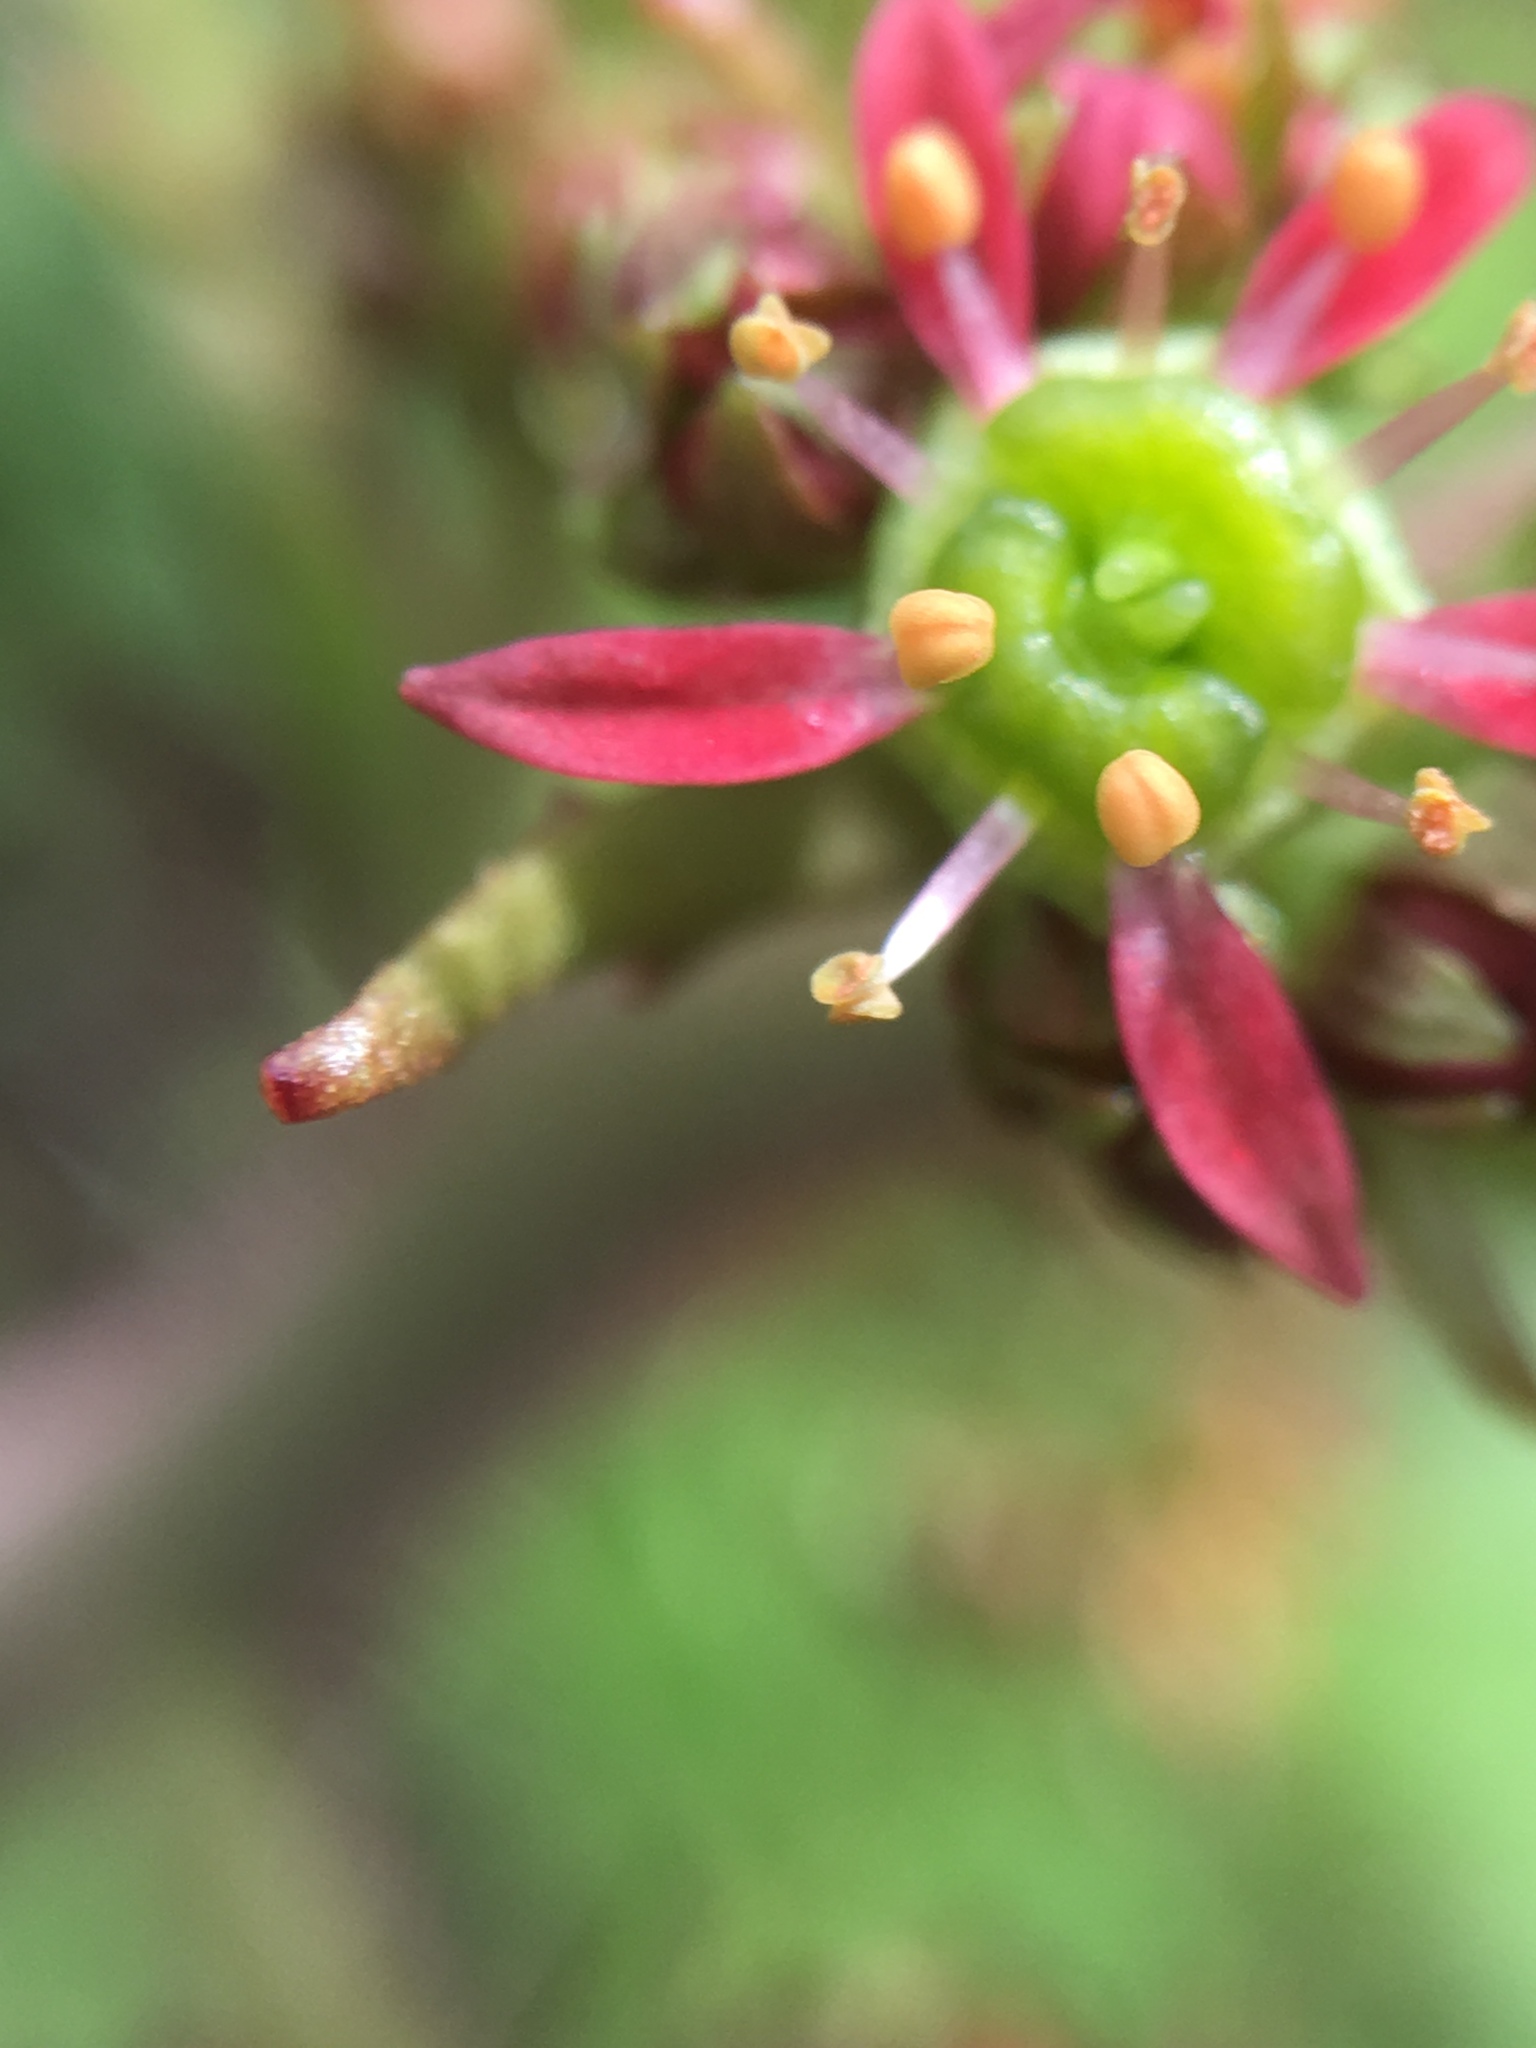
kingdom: Plantae
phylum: Tracheophyta
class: Magnoliopsida
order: Saxifragales
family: Saxifragaceae
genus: Micranthes
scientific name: Micranthes pensylvanica
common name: Marsh saxifrage
